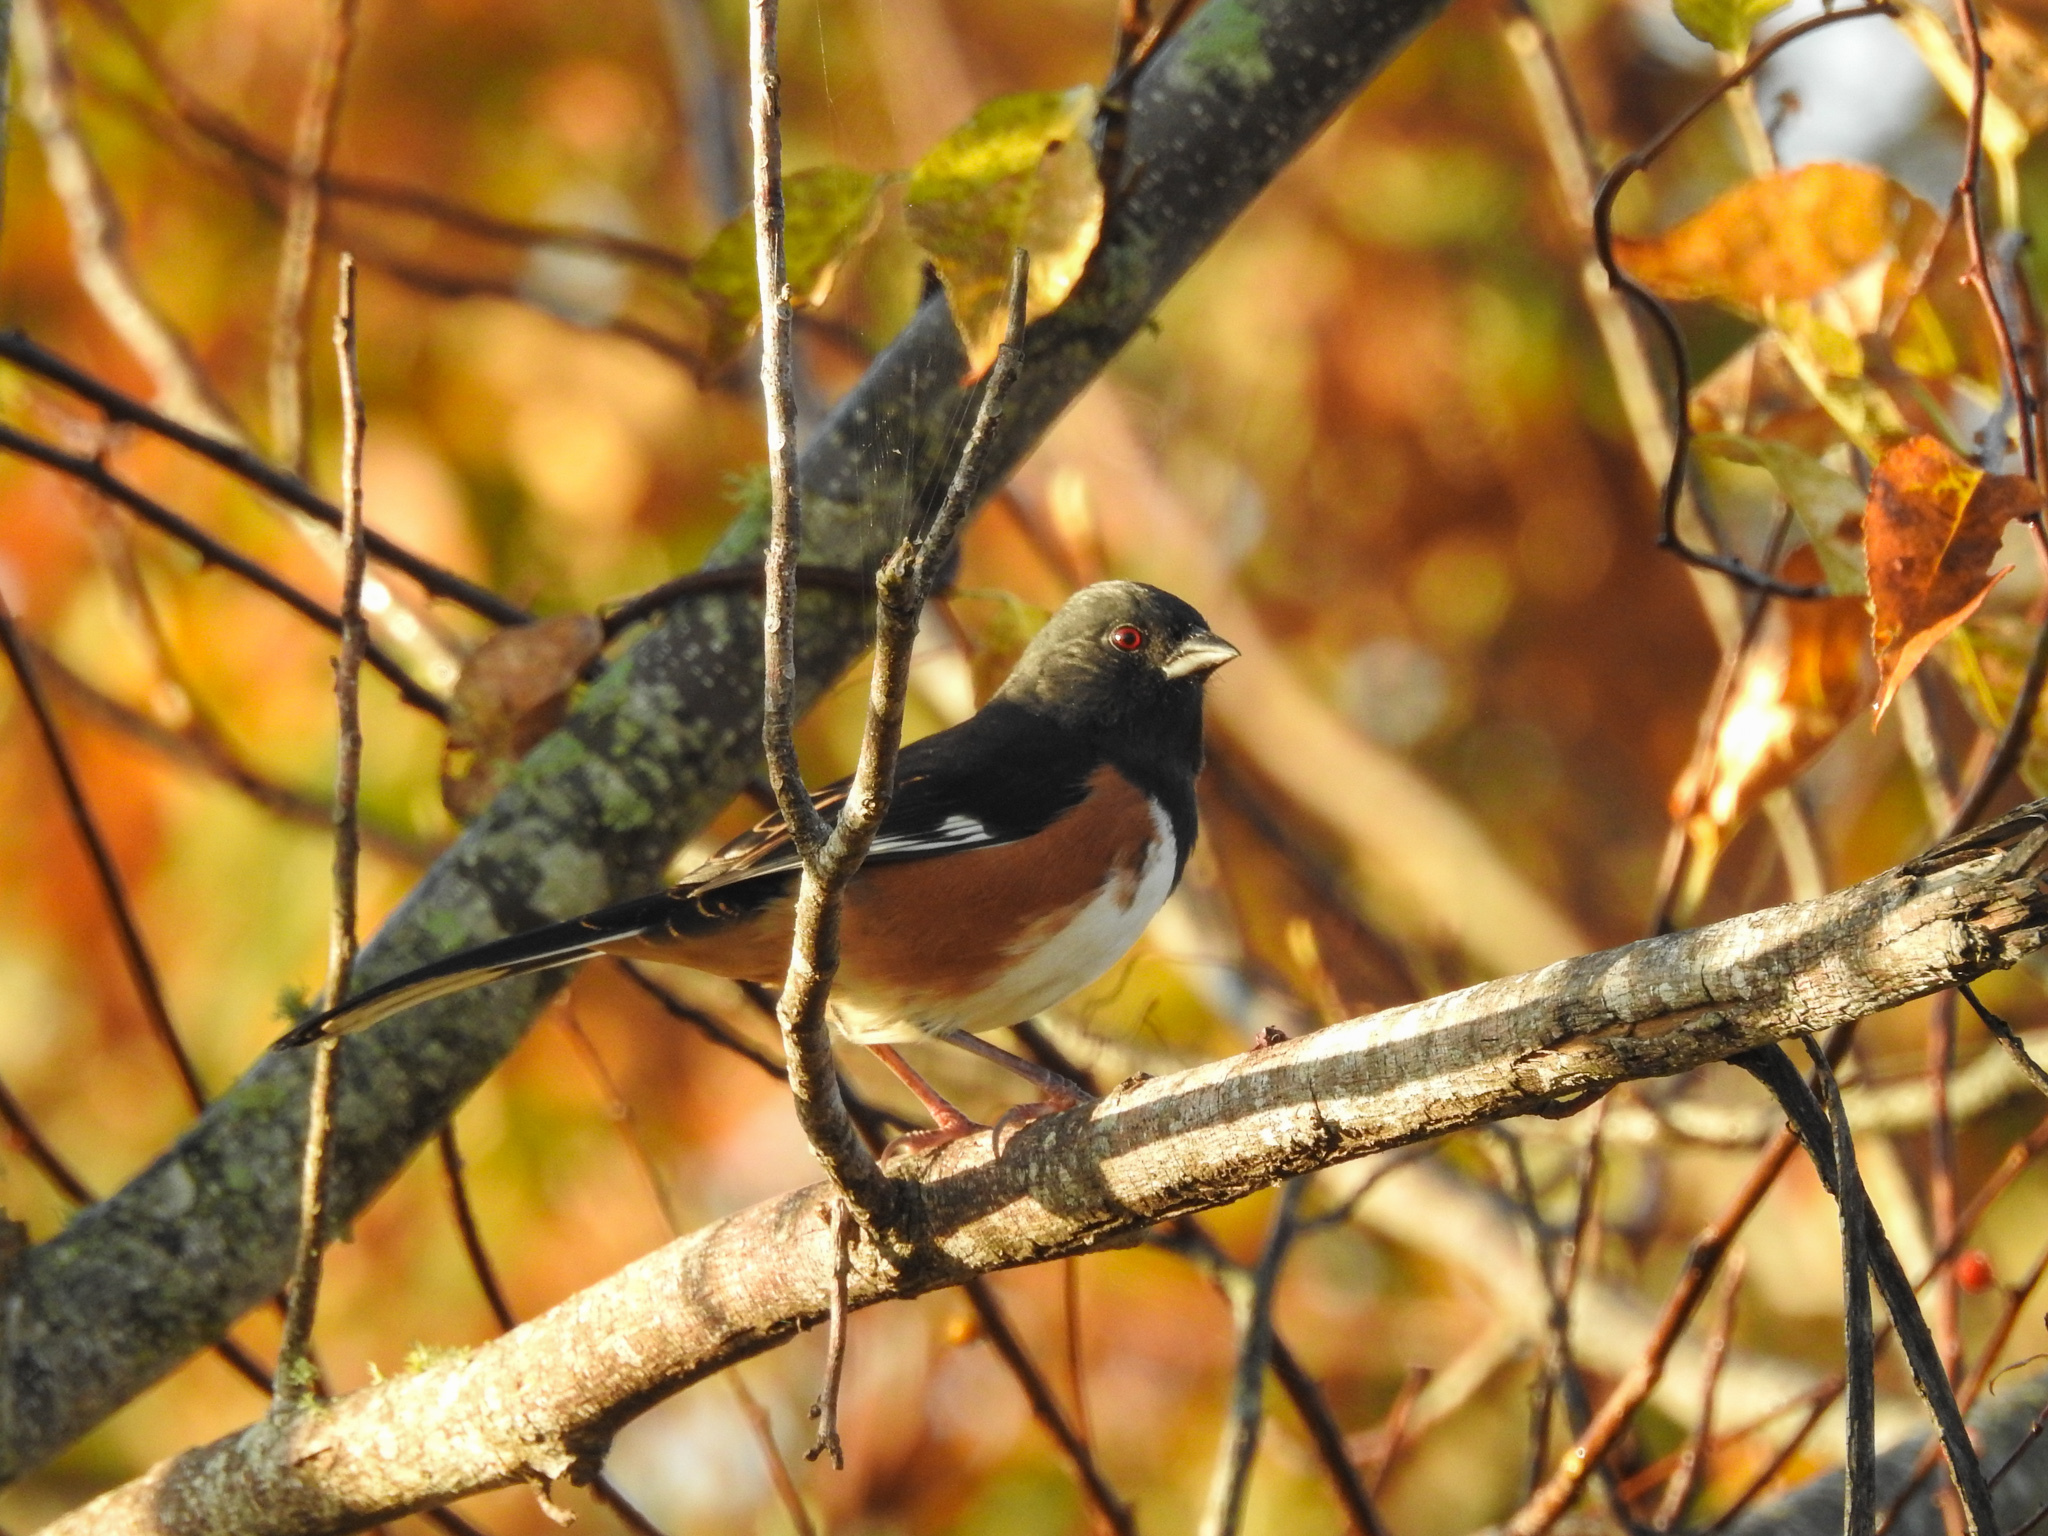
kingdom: Animalia
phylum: Chordata
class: Aves
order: Passeriformes
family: Passerellidae
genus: Pipilo
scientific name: Pipilo erythrophthalmus
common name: Eastern towhee
